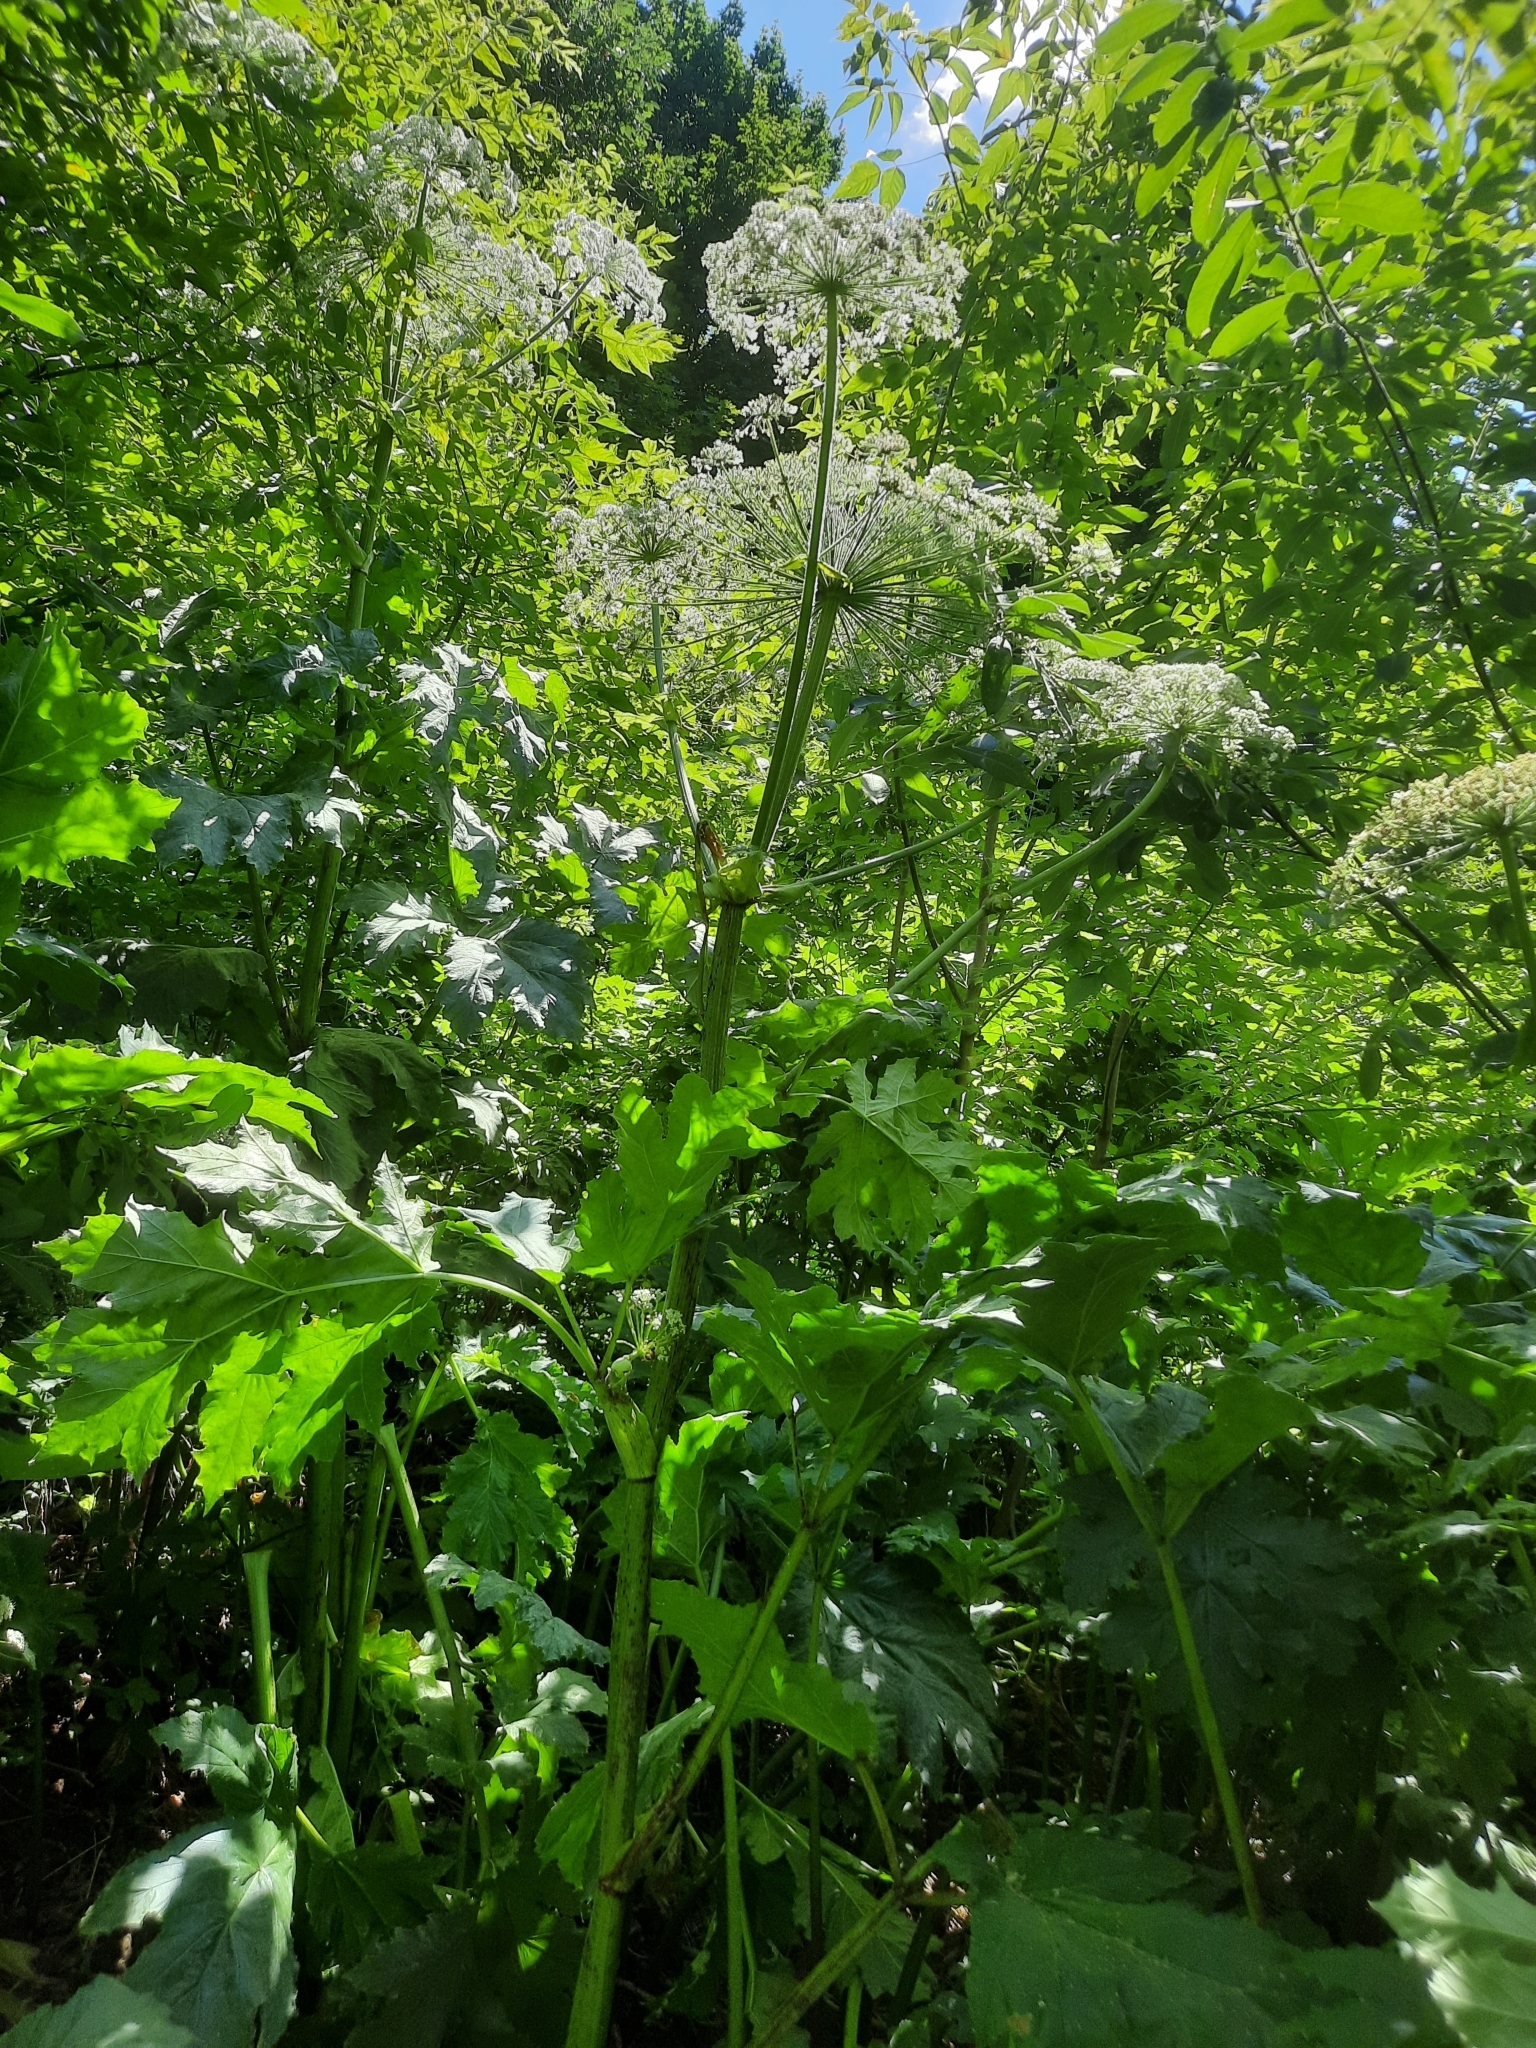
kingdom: Plantae
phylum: Tracheophyta
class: Magnoliopsida
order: Apiales
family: Apiaceae
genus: Heracleum
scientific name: Heracleum sosnowskyi
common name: Sosnowsky's hogweed
